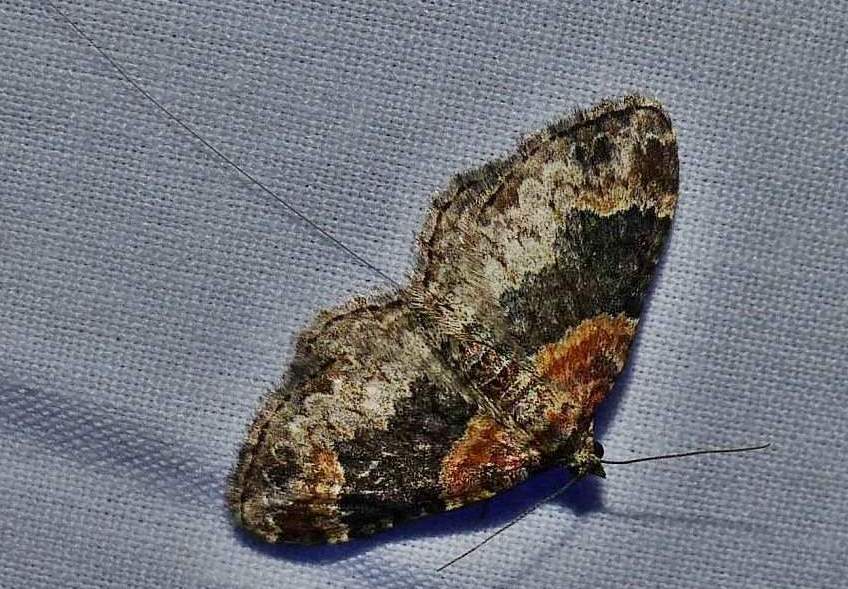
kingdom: Animalia
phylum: Arthropoda
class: Insecta
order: Lepidoptera
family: Geometridae
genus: Xanthorhoe
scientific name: Xanthorhoe ferrugata
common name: Dark-barred twin-spot carpet
